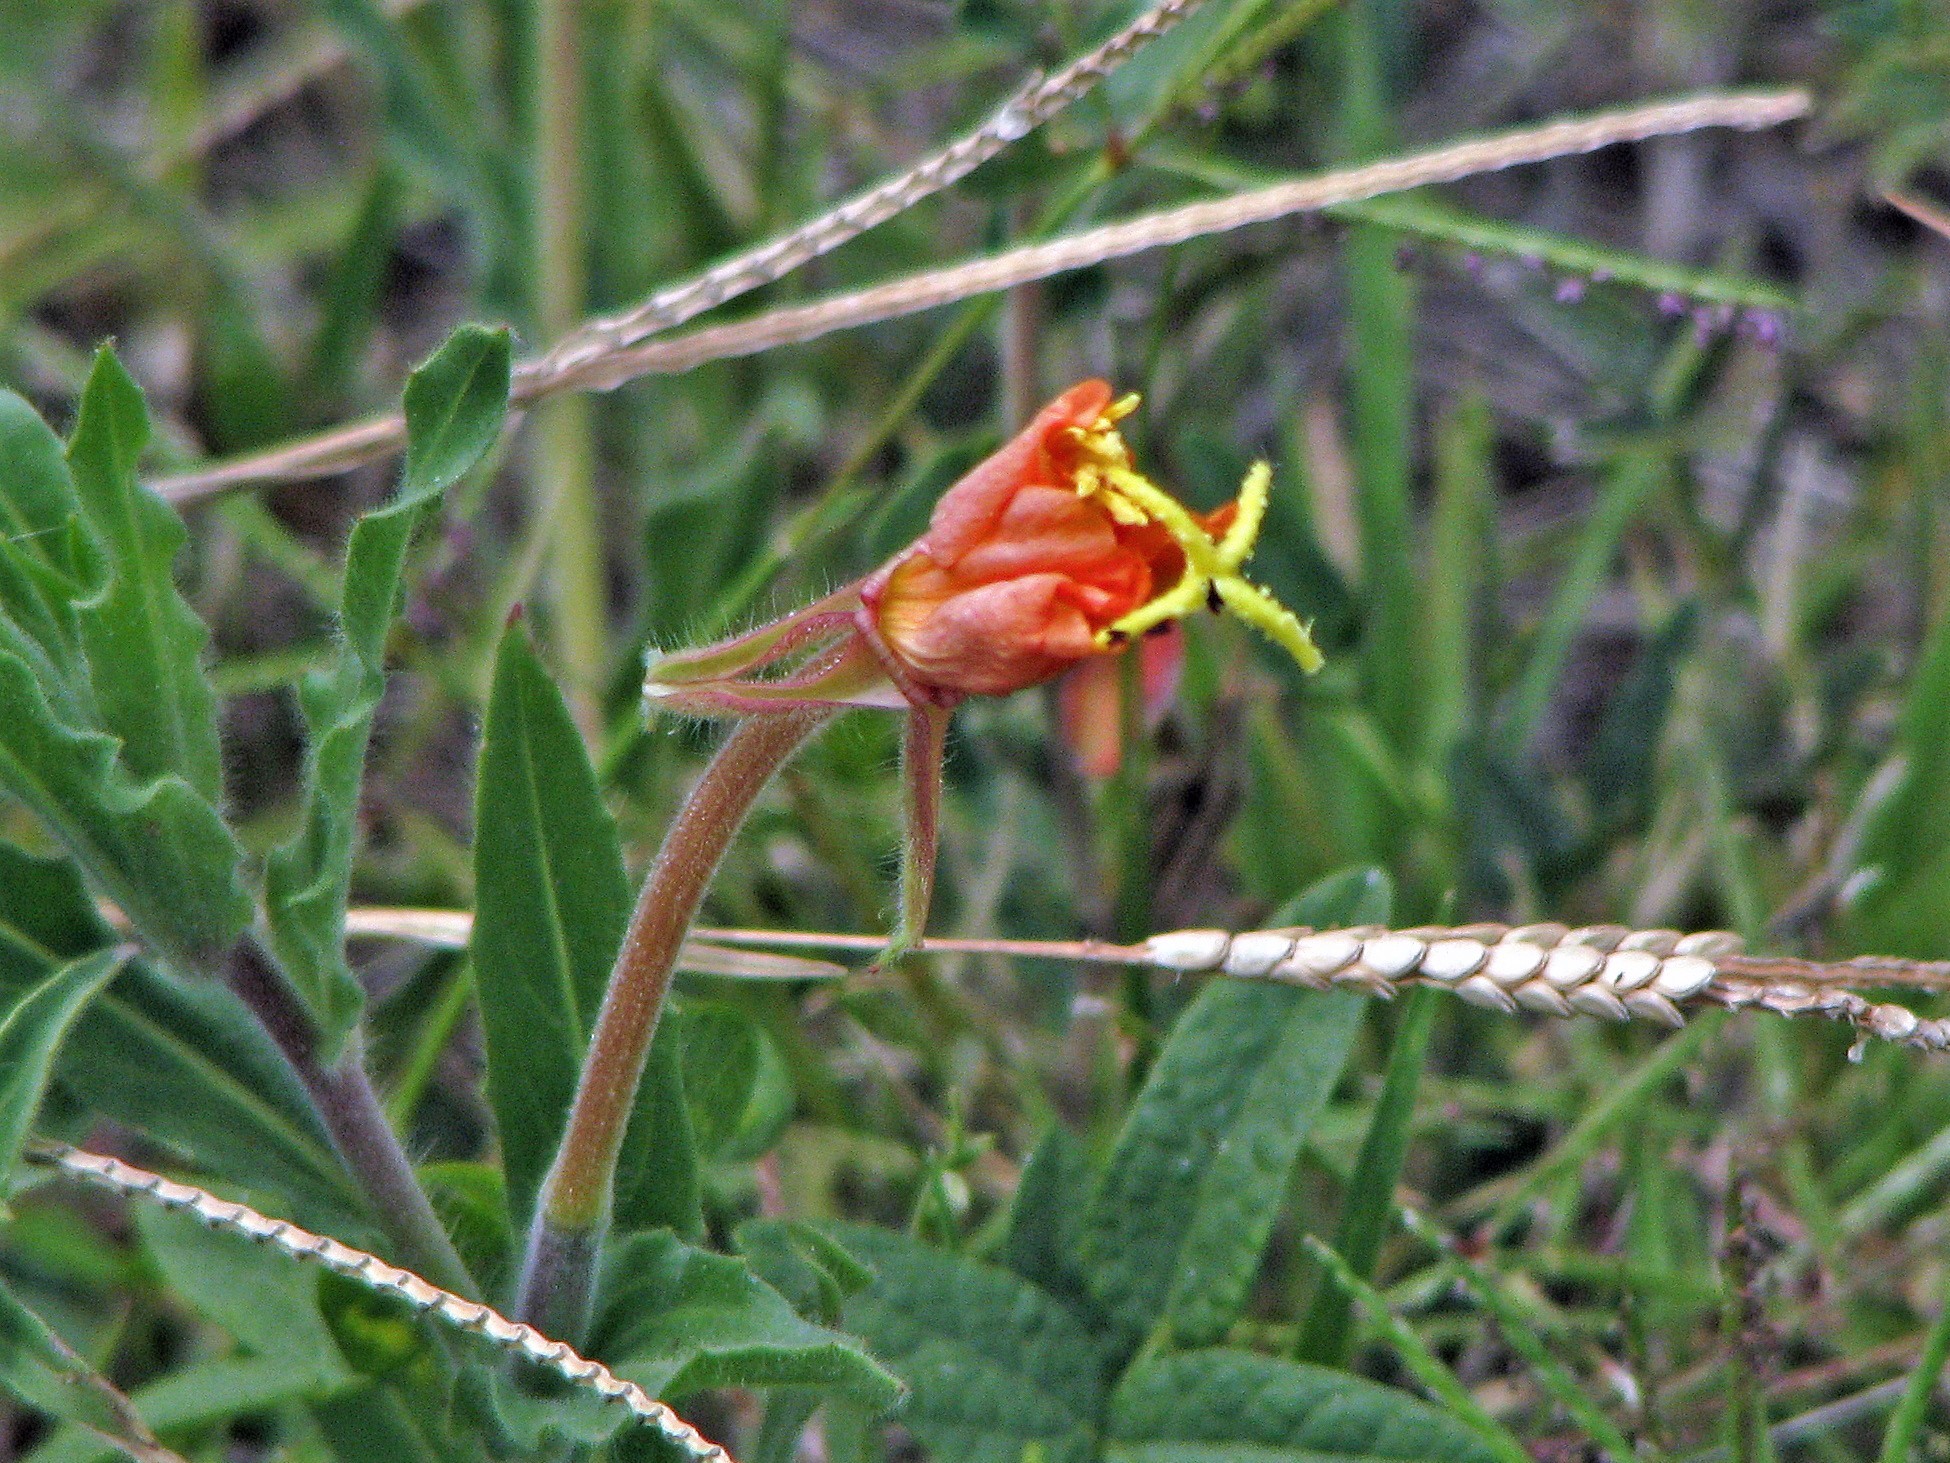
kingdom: Plantae
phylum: Tracheophyta
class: Magnoliopsida
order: Myrtales
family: Onagraceae
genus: Oenothera
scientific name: Oenothera tafiensis
